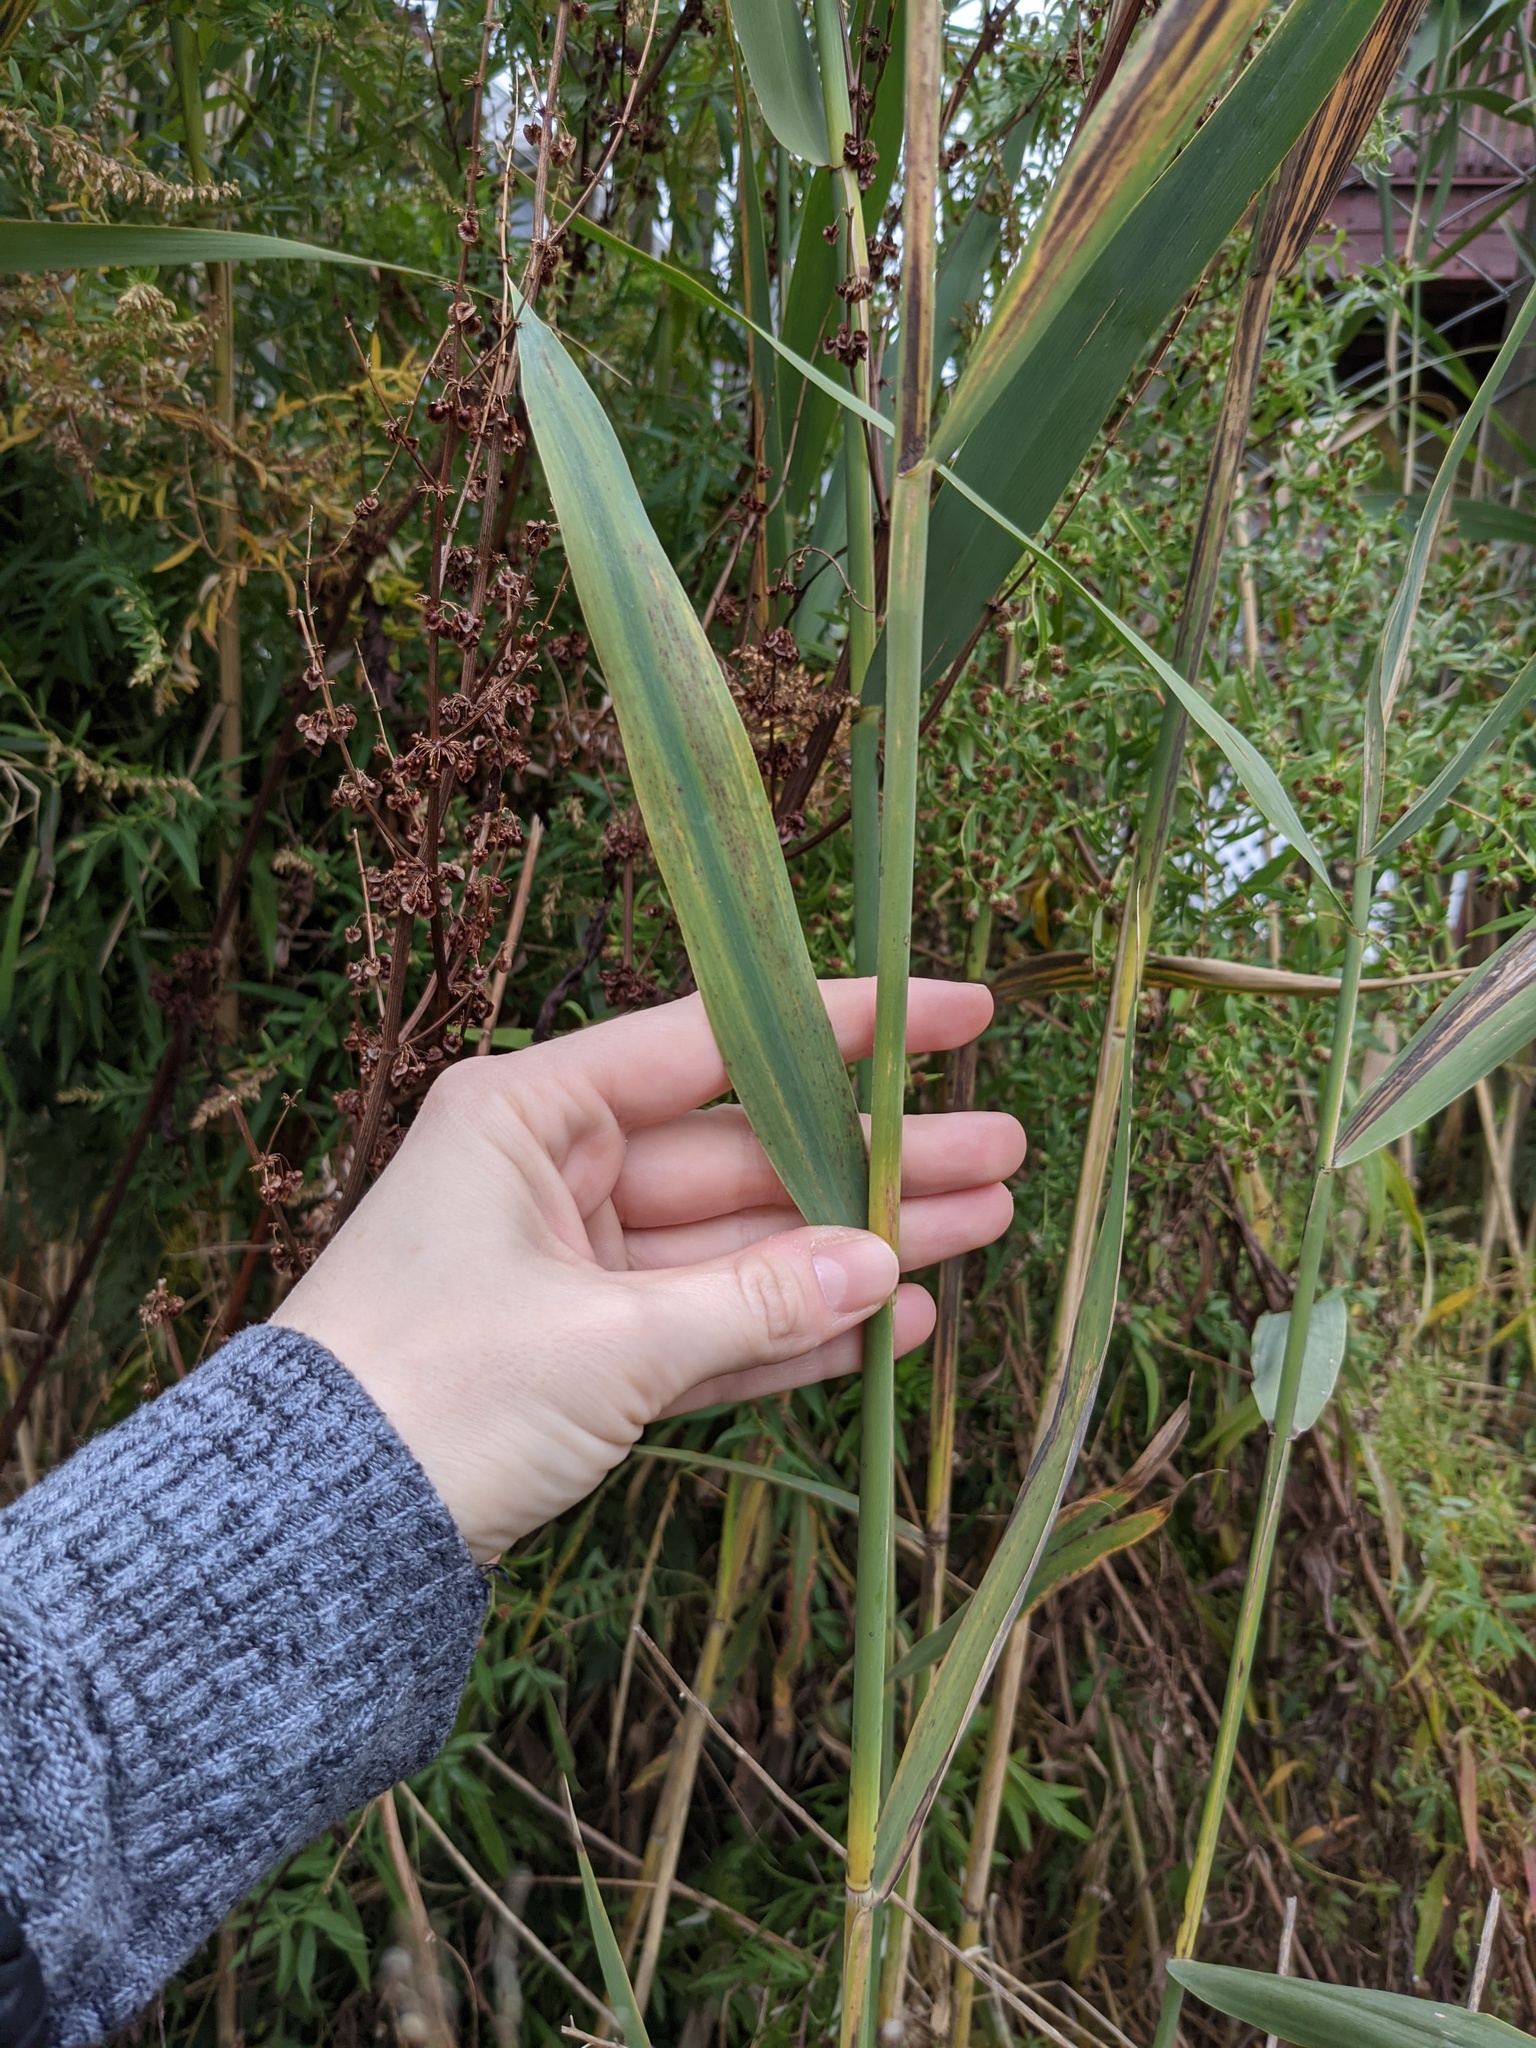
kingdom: Plantae
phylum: Tracheophyta
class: Liliopsida
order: Poales
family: Poaceae
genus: Phragmites
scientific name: Phragmites australis
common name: Common reed
